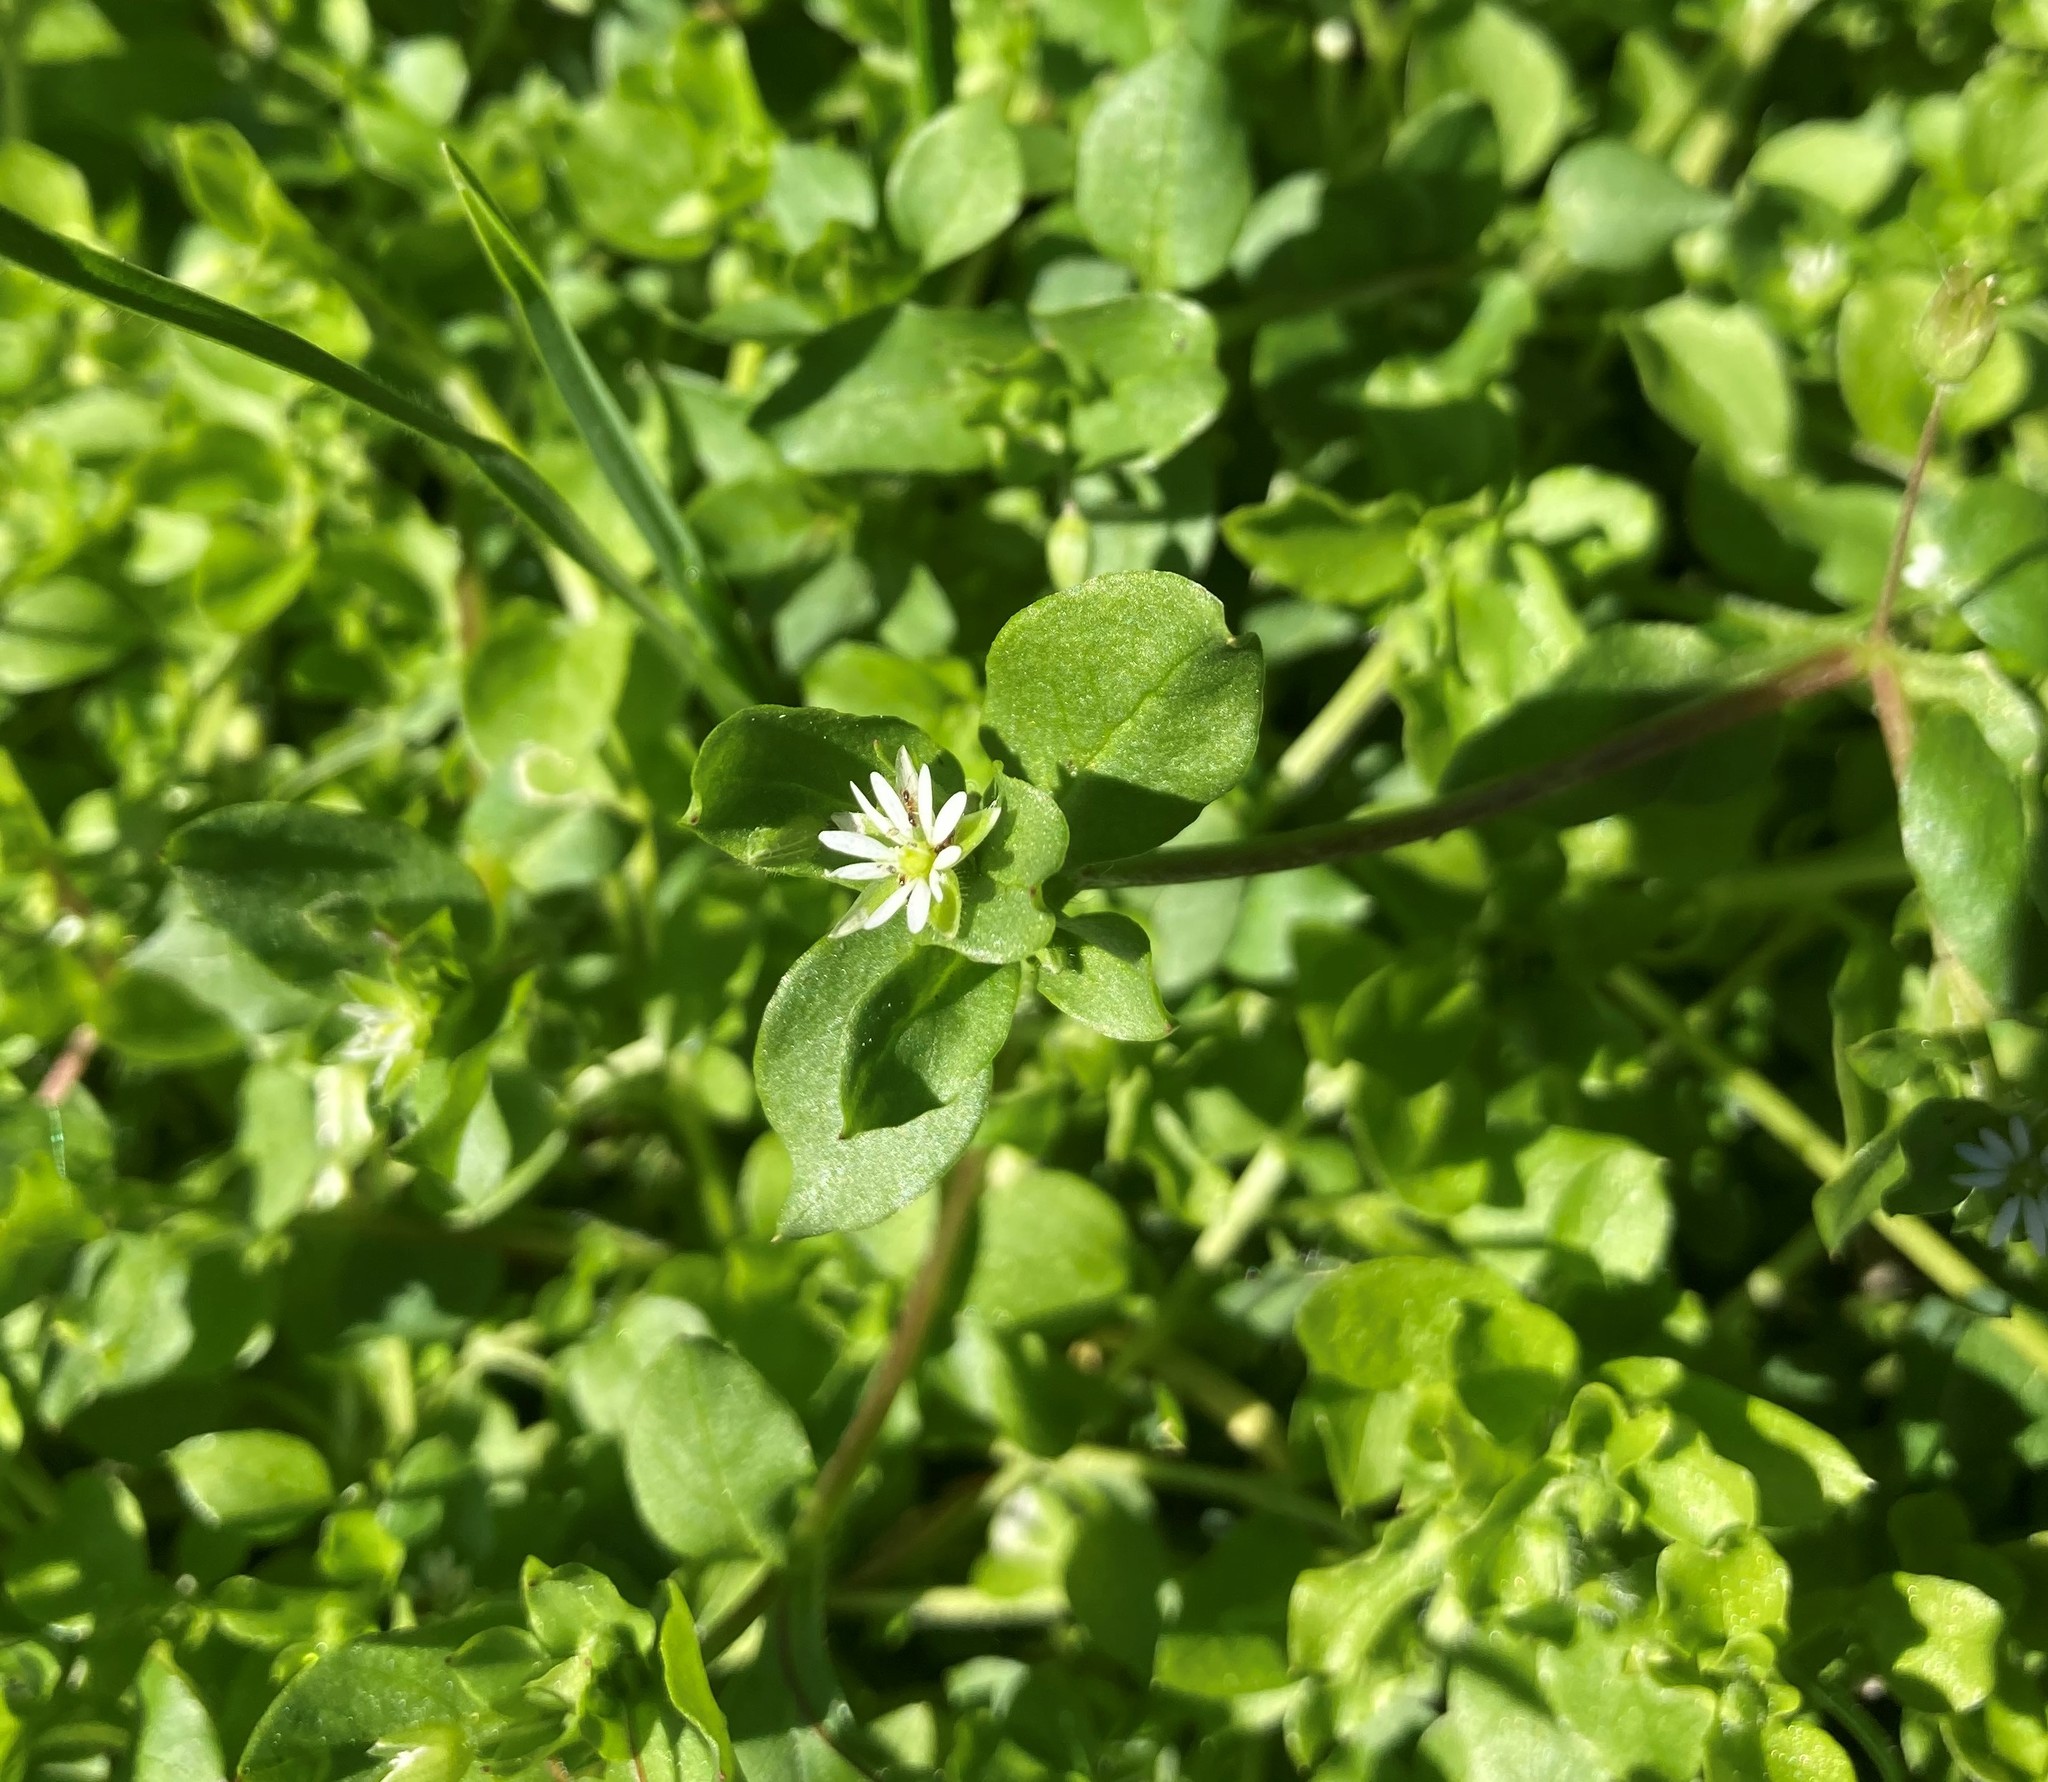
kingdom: Plantae
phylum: Tracheophyta
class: Magnoliopsida
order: Caryophyllales
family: Caryophyllaceae
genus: Stellaria
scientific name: Stellaria media
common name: Common chickweed
